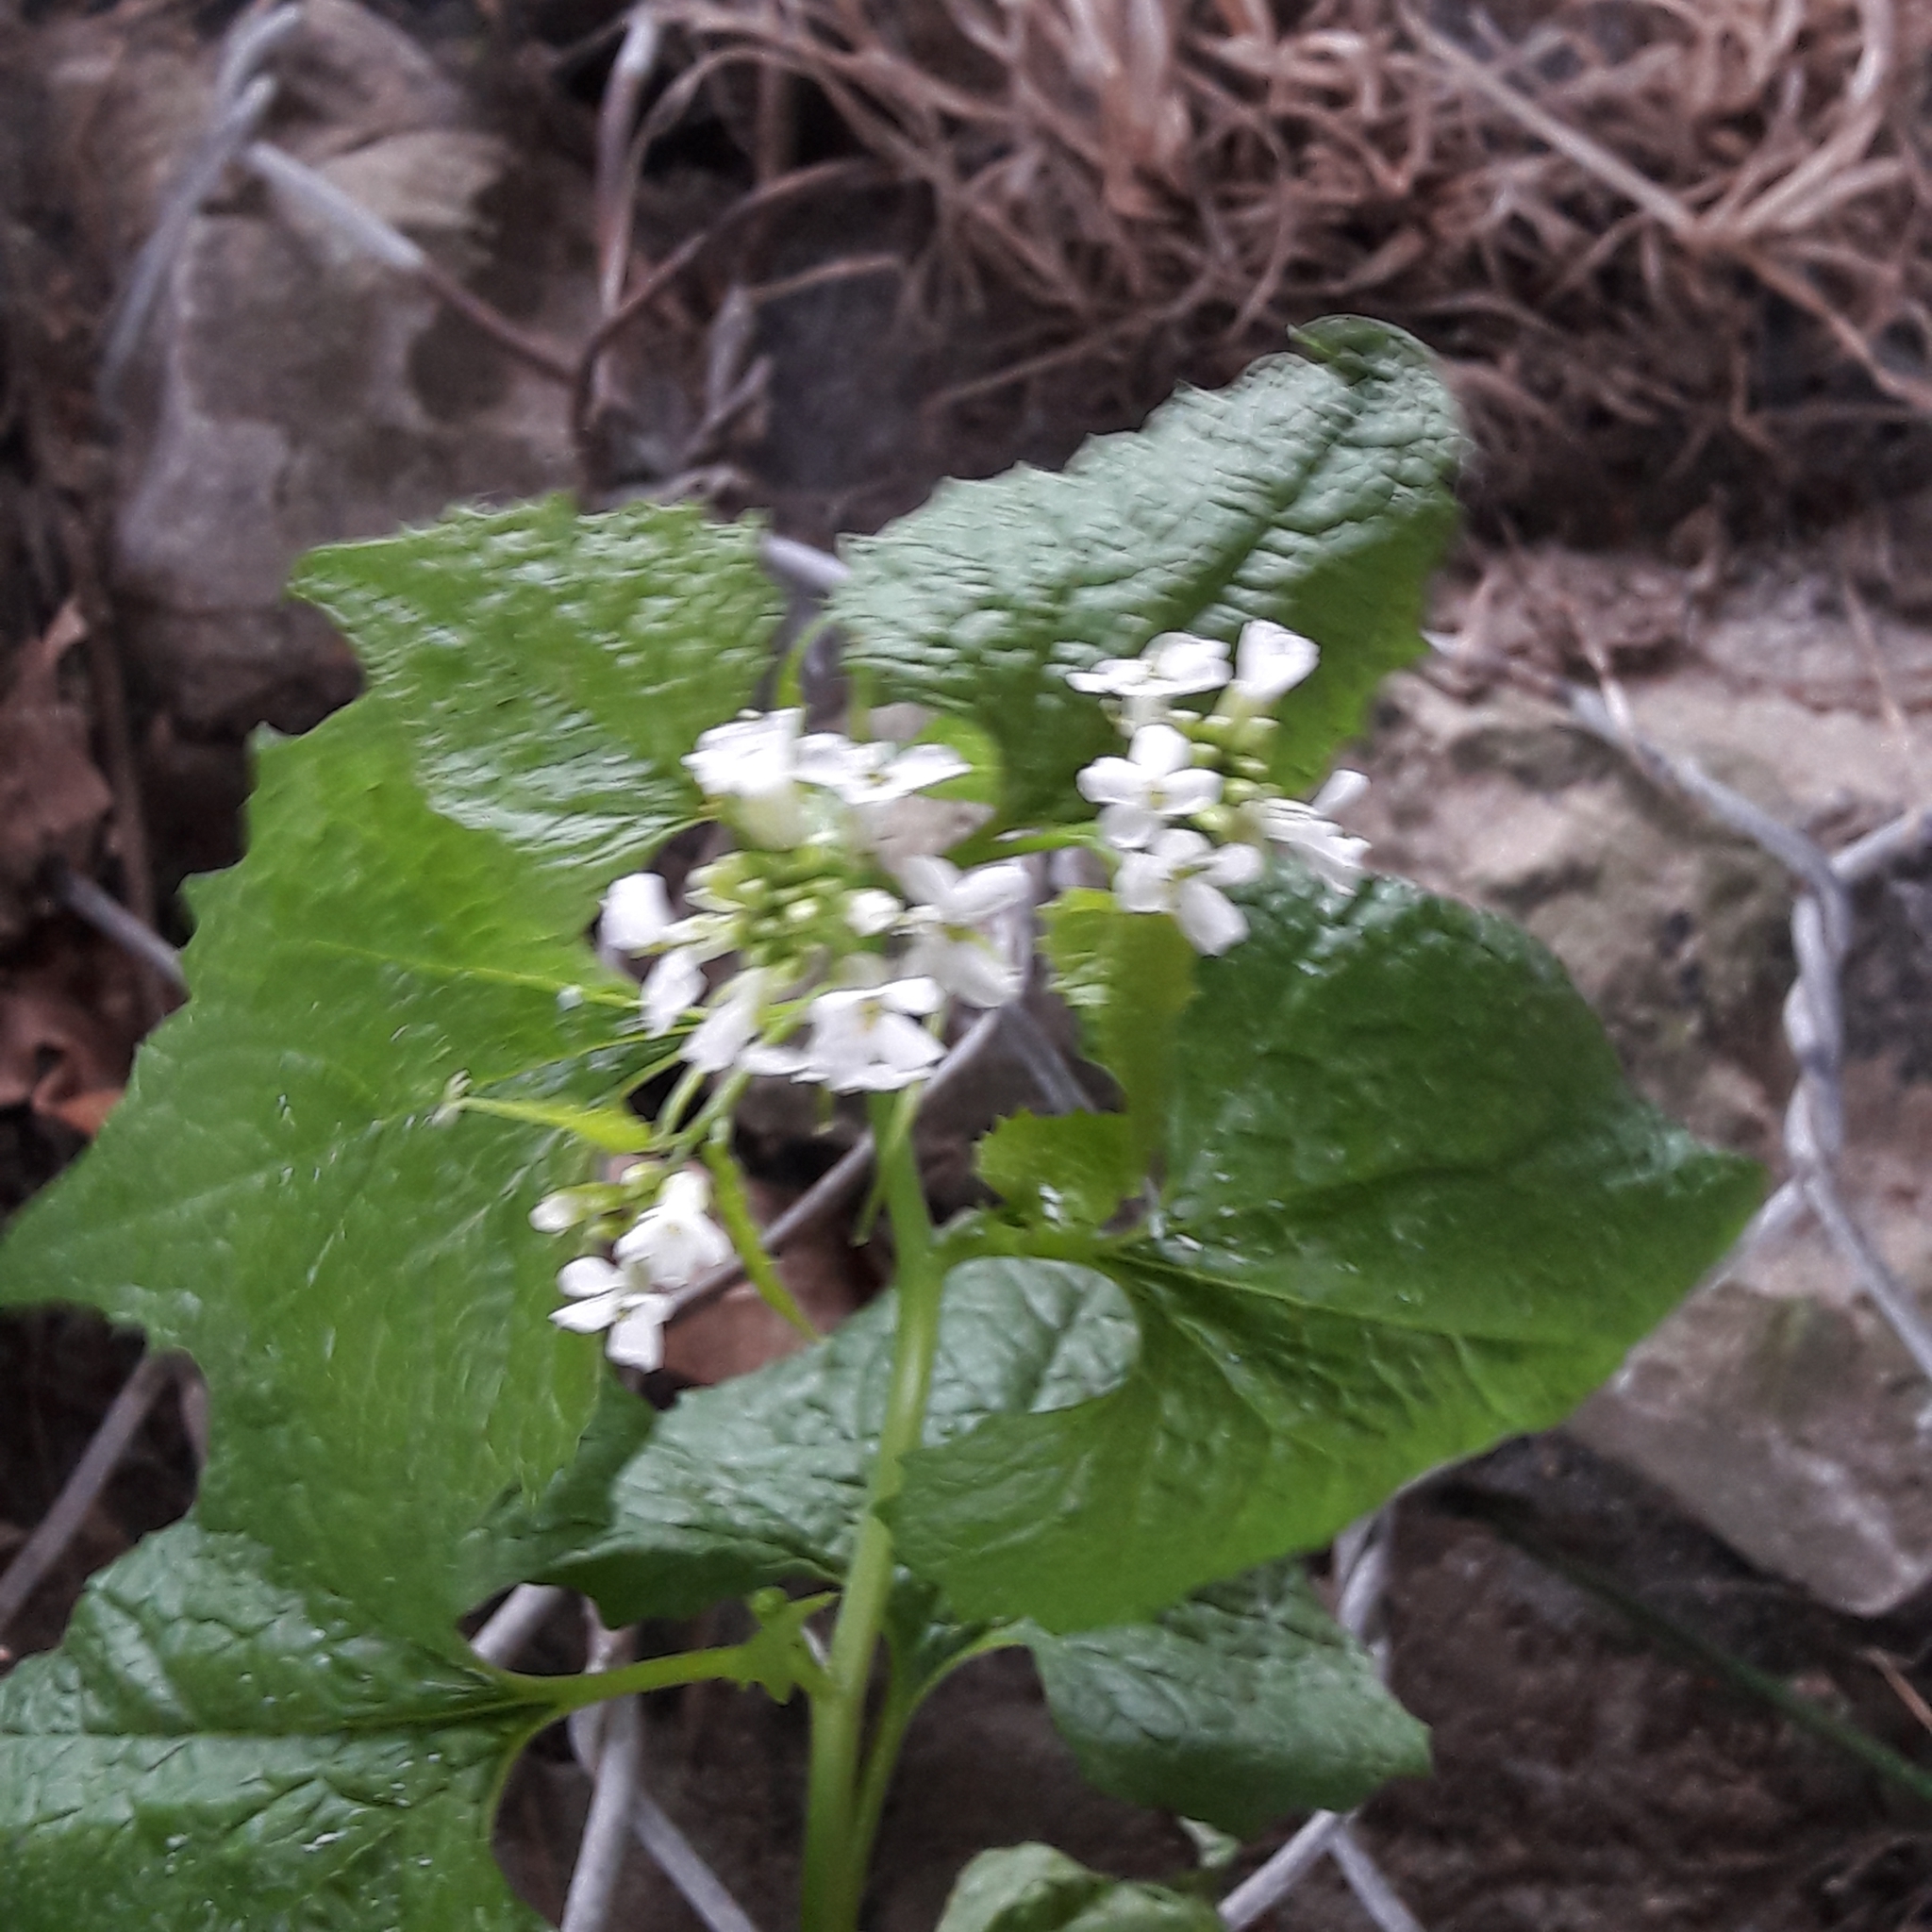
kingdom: Plantae
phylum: Tracheophyta
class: Magnoliopsida
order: Brassicales
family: Brassicaceae
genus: Alliaria
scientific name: Alliaria petiolata
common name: Garlic mustard
